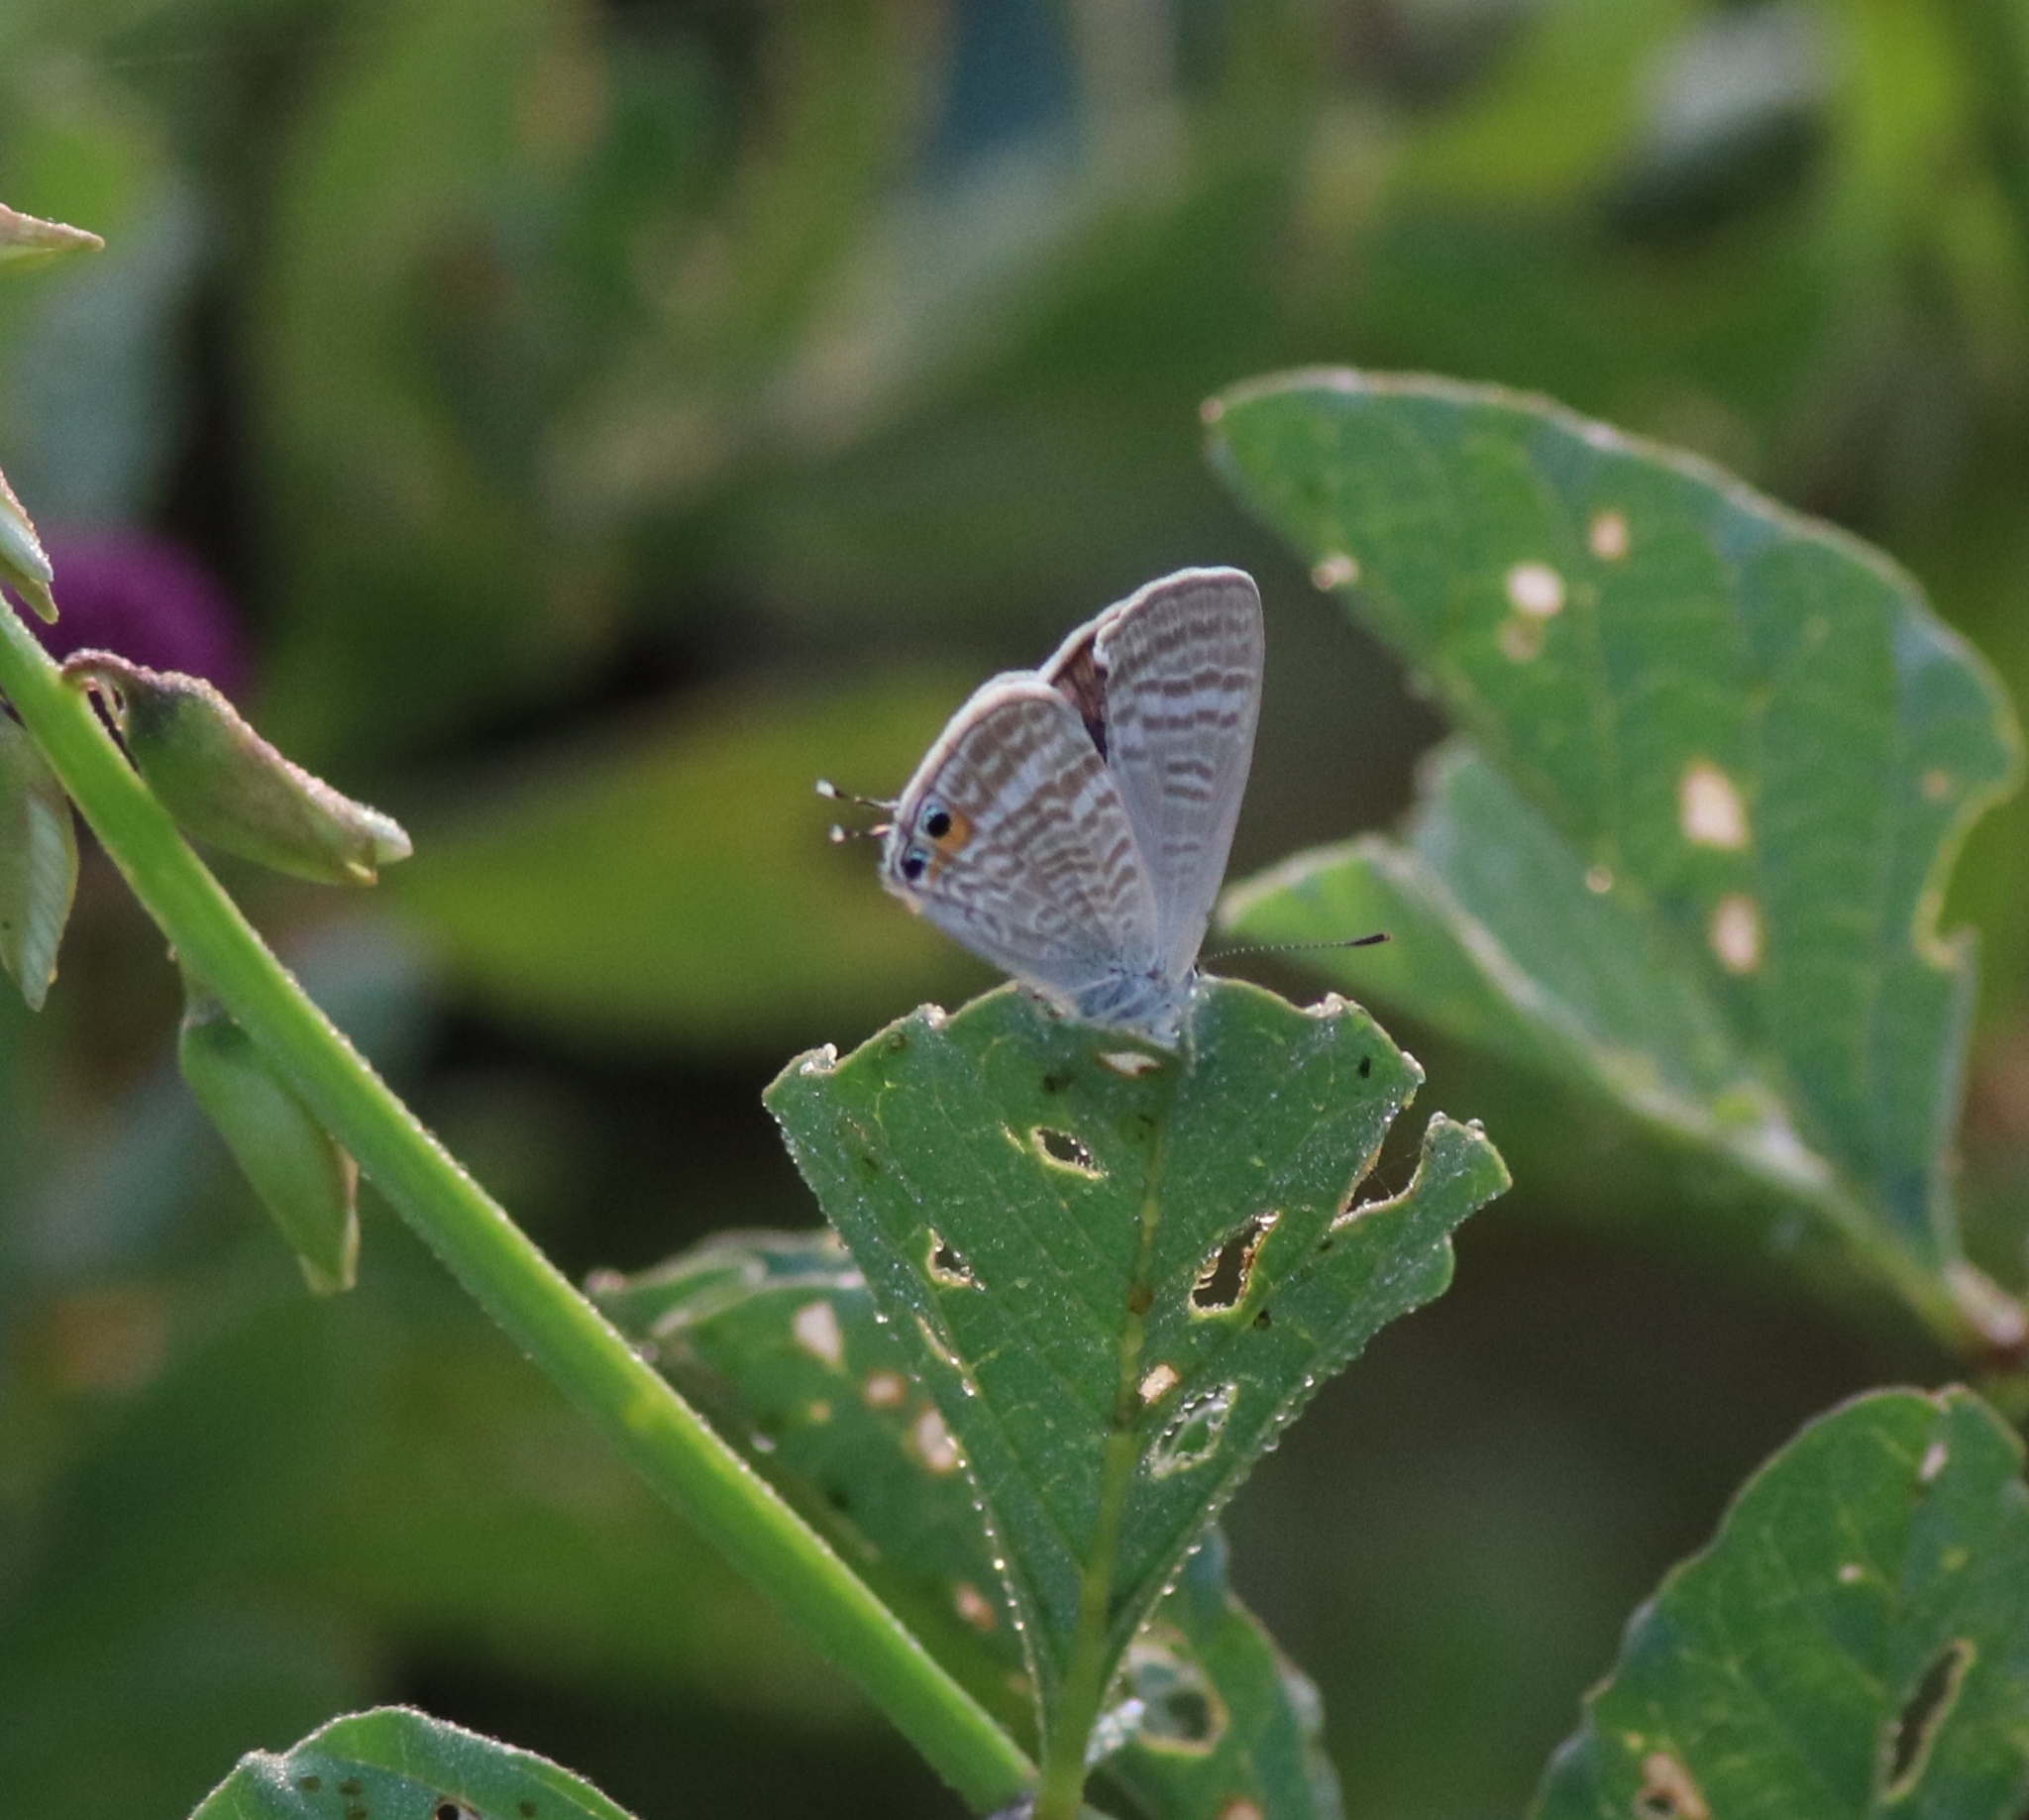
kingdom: Animalia
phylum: Arthropoda
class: Insecta
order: Lepidoptera
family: Lycaenidae
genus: Lampides
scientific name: Lampides boeticus
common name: Long-tailed blue
